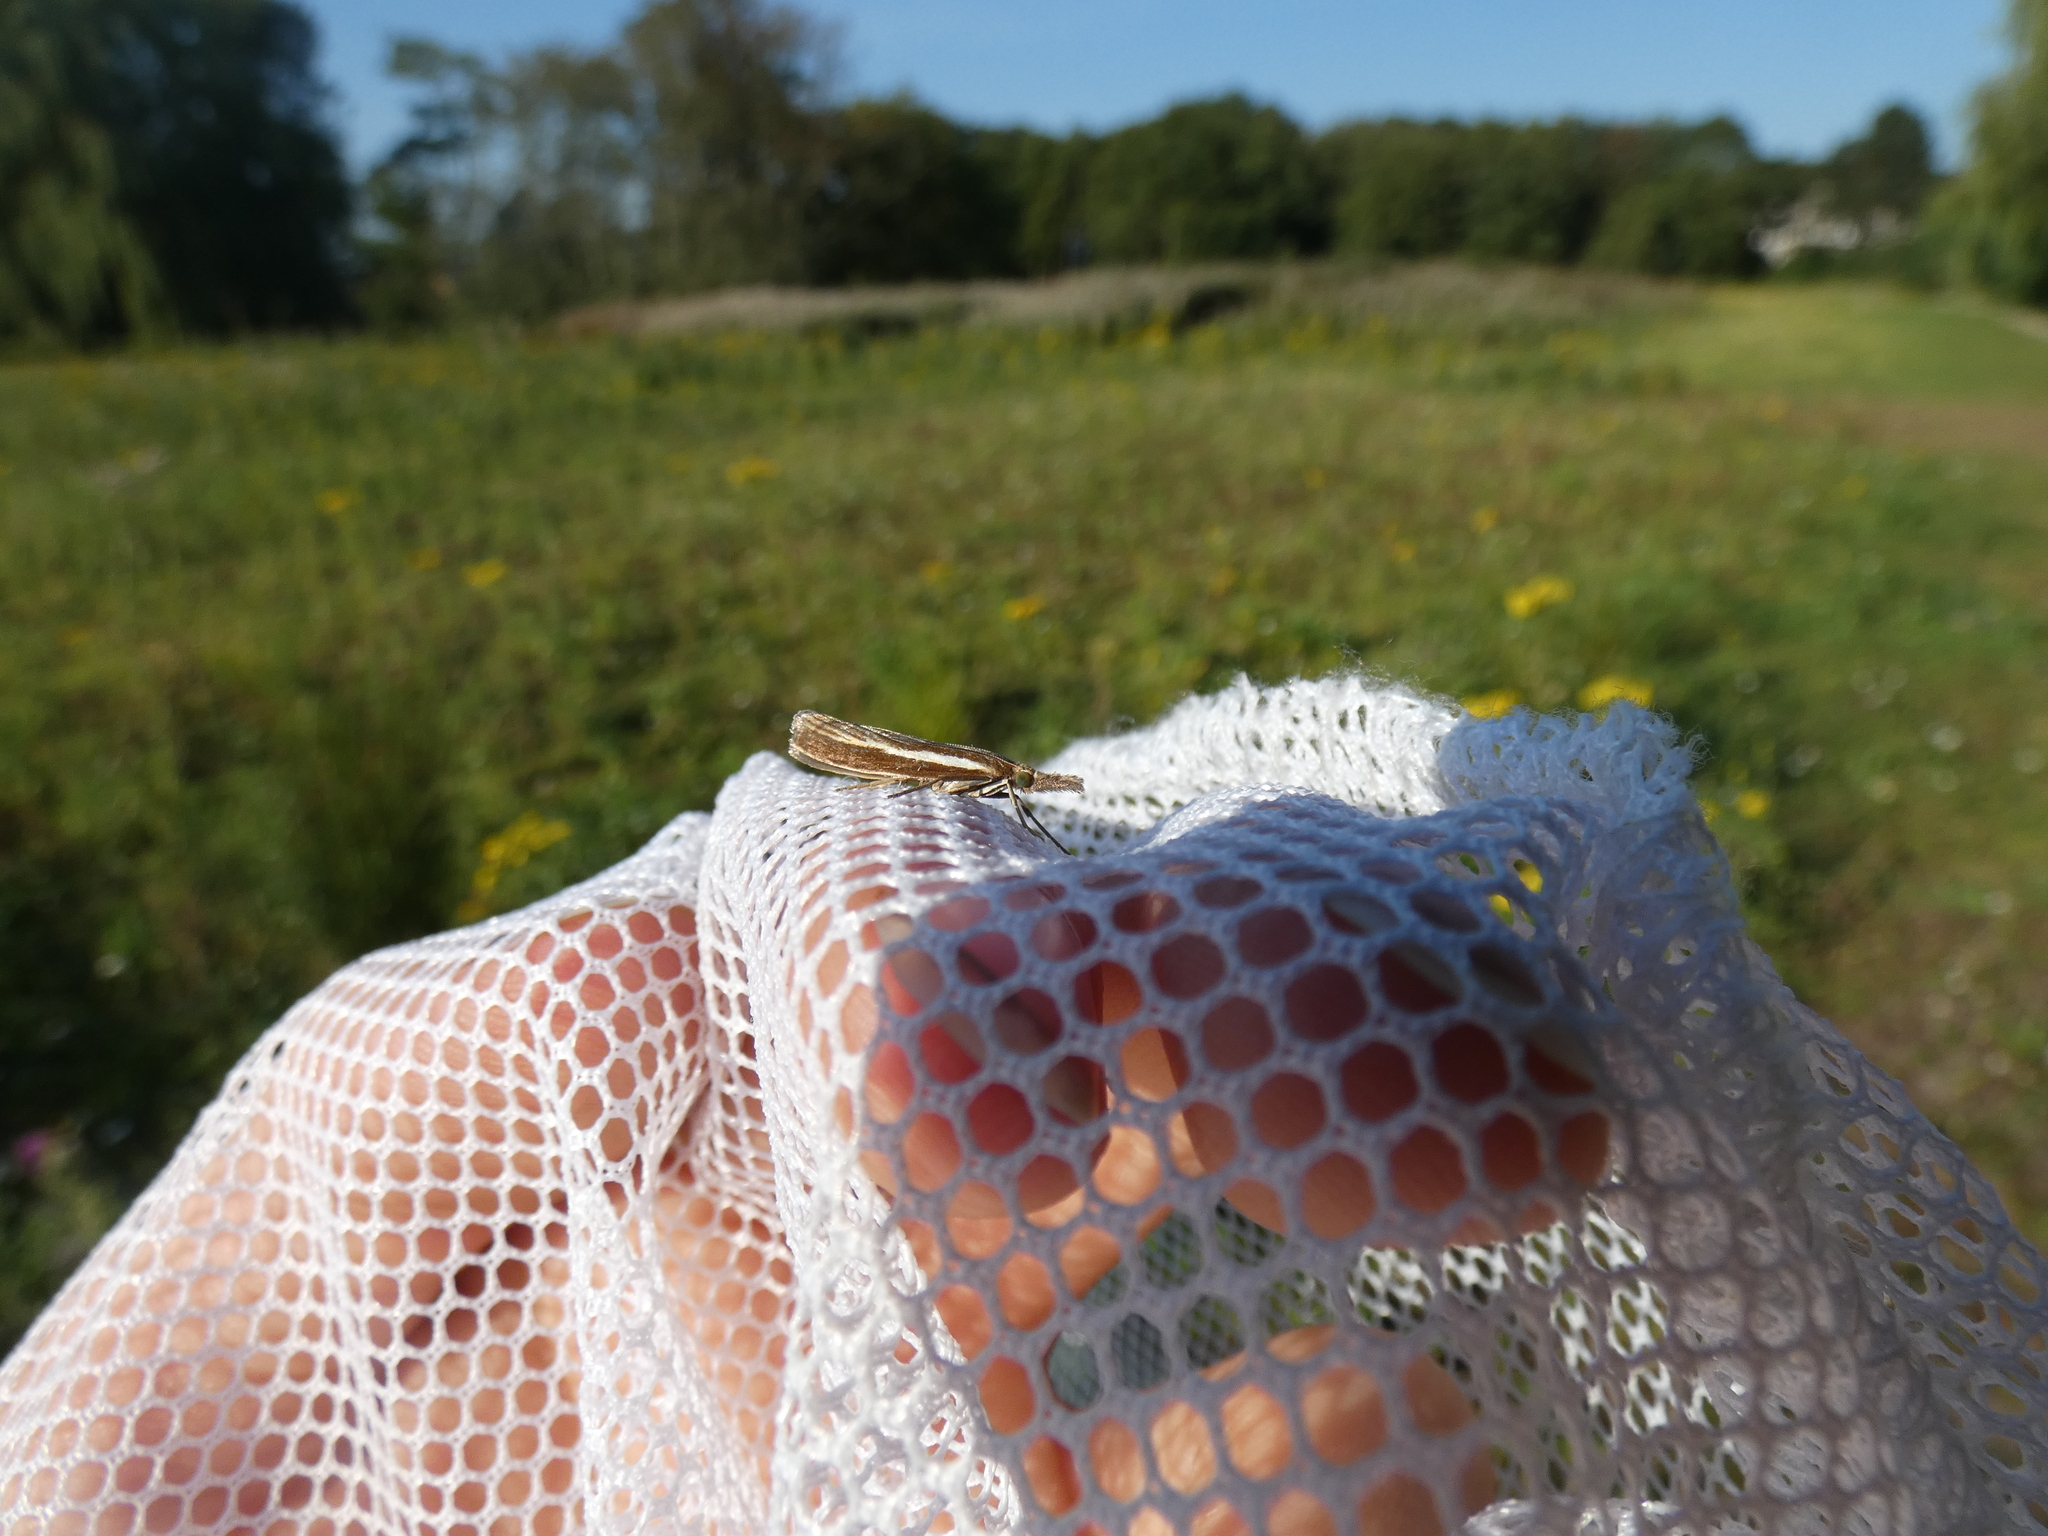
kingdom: Animalia
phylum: Arthropoda
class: Insecta
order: Lepidoptera
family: Crambidae
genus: Agriphila
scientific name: Agriphila tristellus
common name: Common grass-veneer
